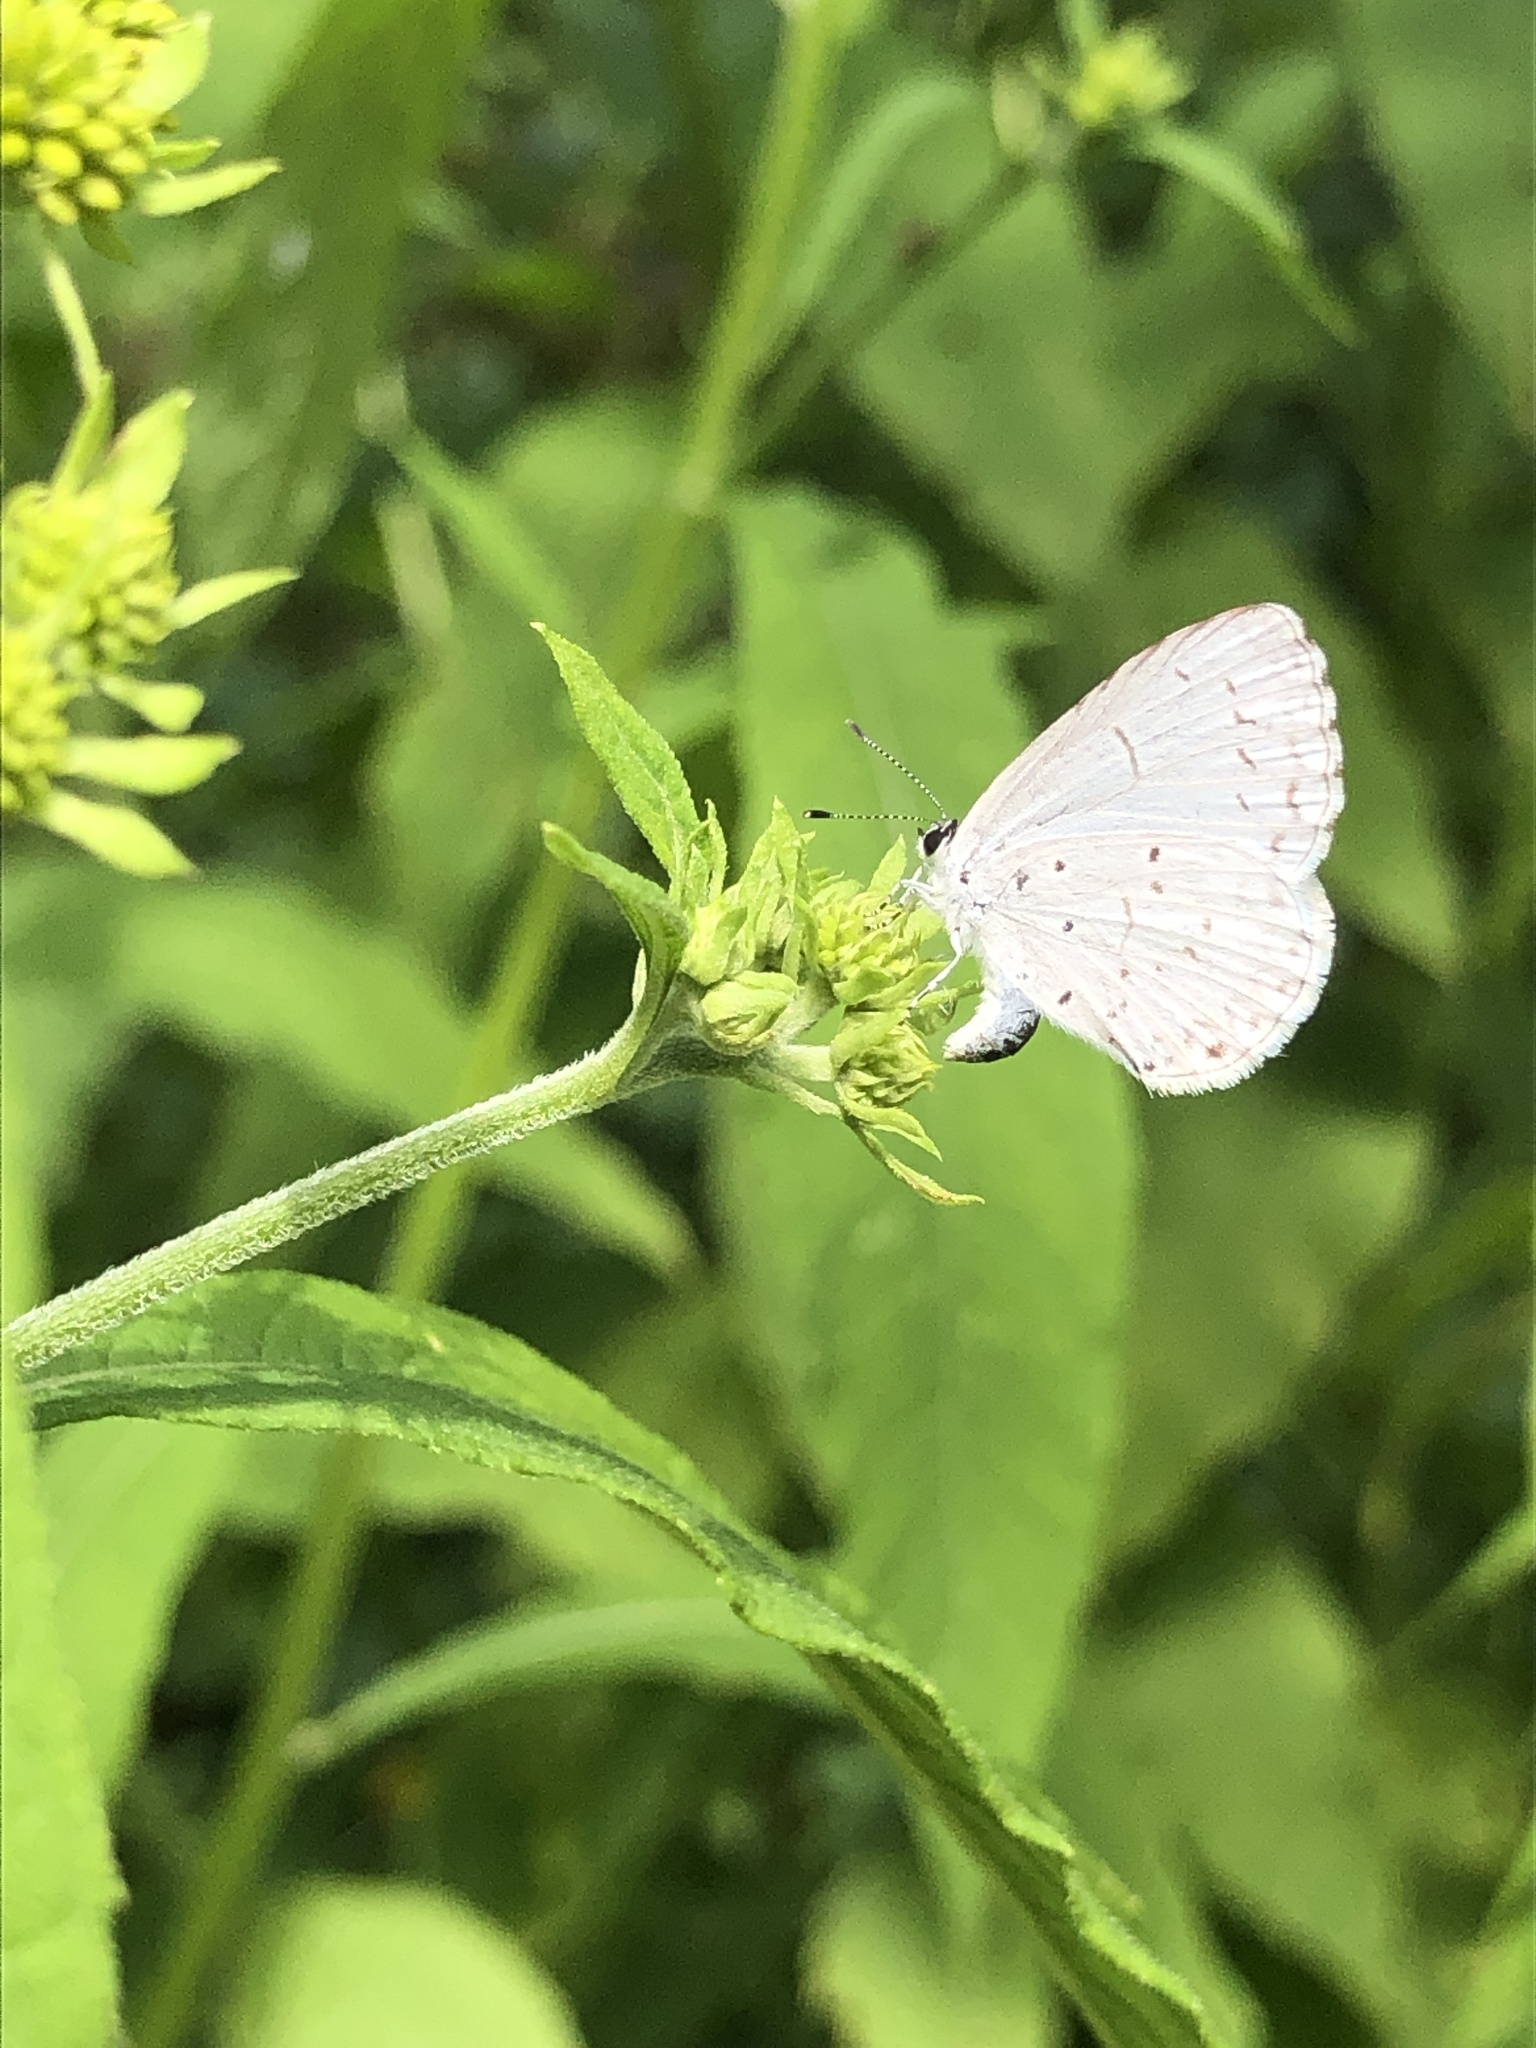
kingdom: Animalia
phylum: Arthropoda
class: Insecta
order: Lepidoptera
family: Lycaenidae
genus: Cyaniris
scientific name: Cyaniris neglecta
